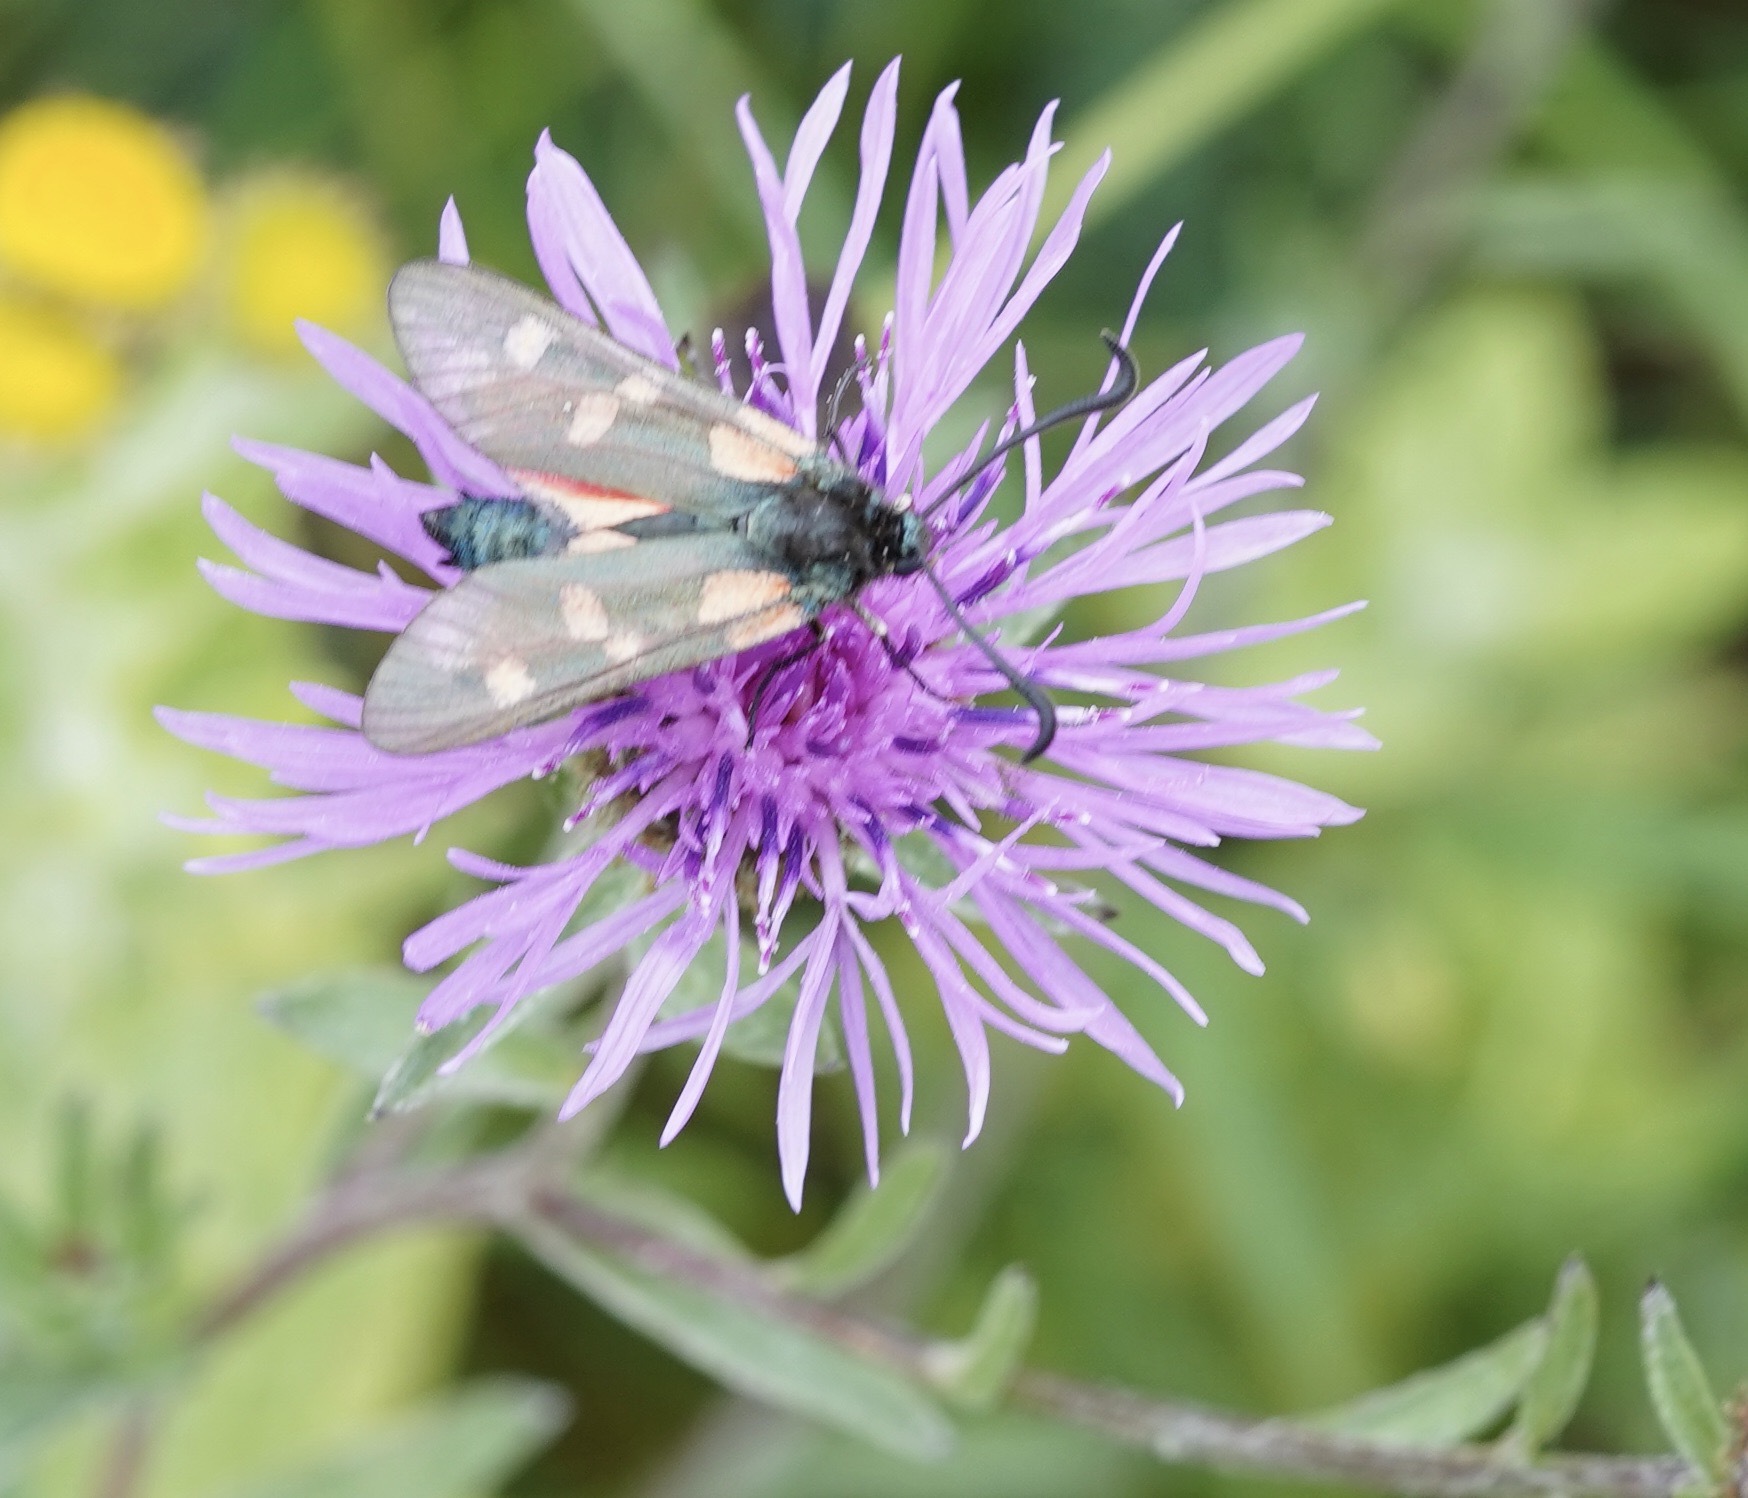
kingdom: Animalia
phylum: Arthropoda
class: Insecta
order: Lepidoptera
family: Zygaenidae
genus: Zygaena
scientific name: Zygaena filipendulae
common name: Six-spot burnet
